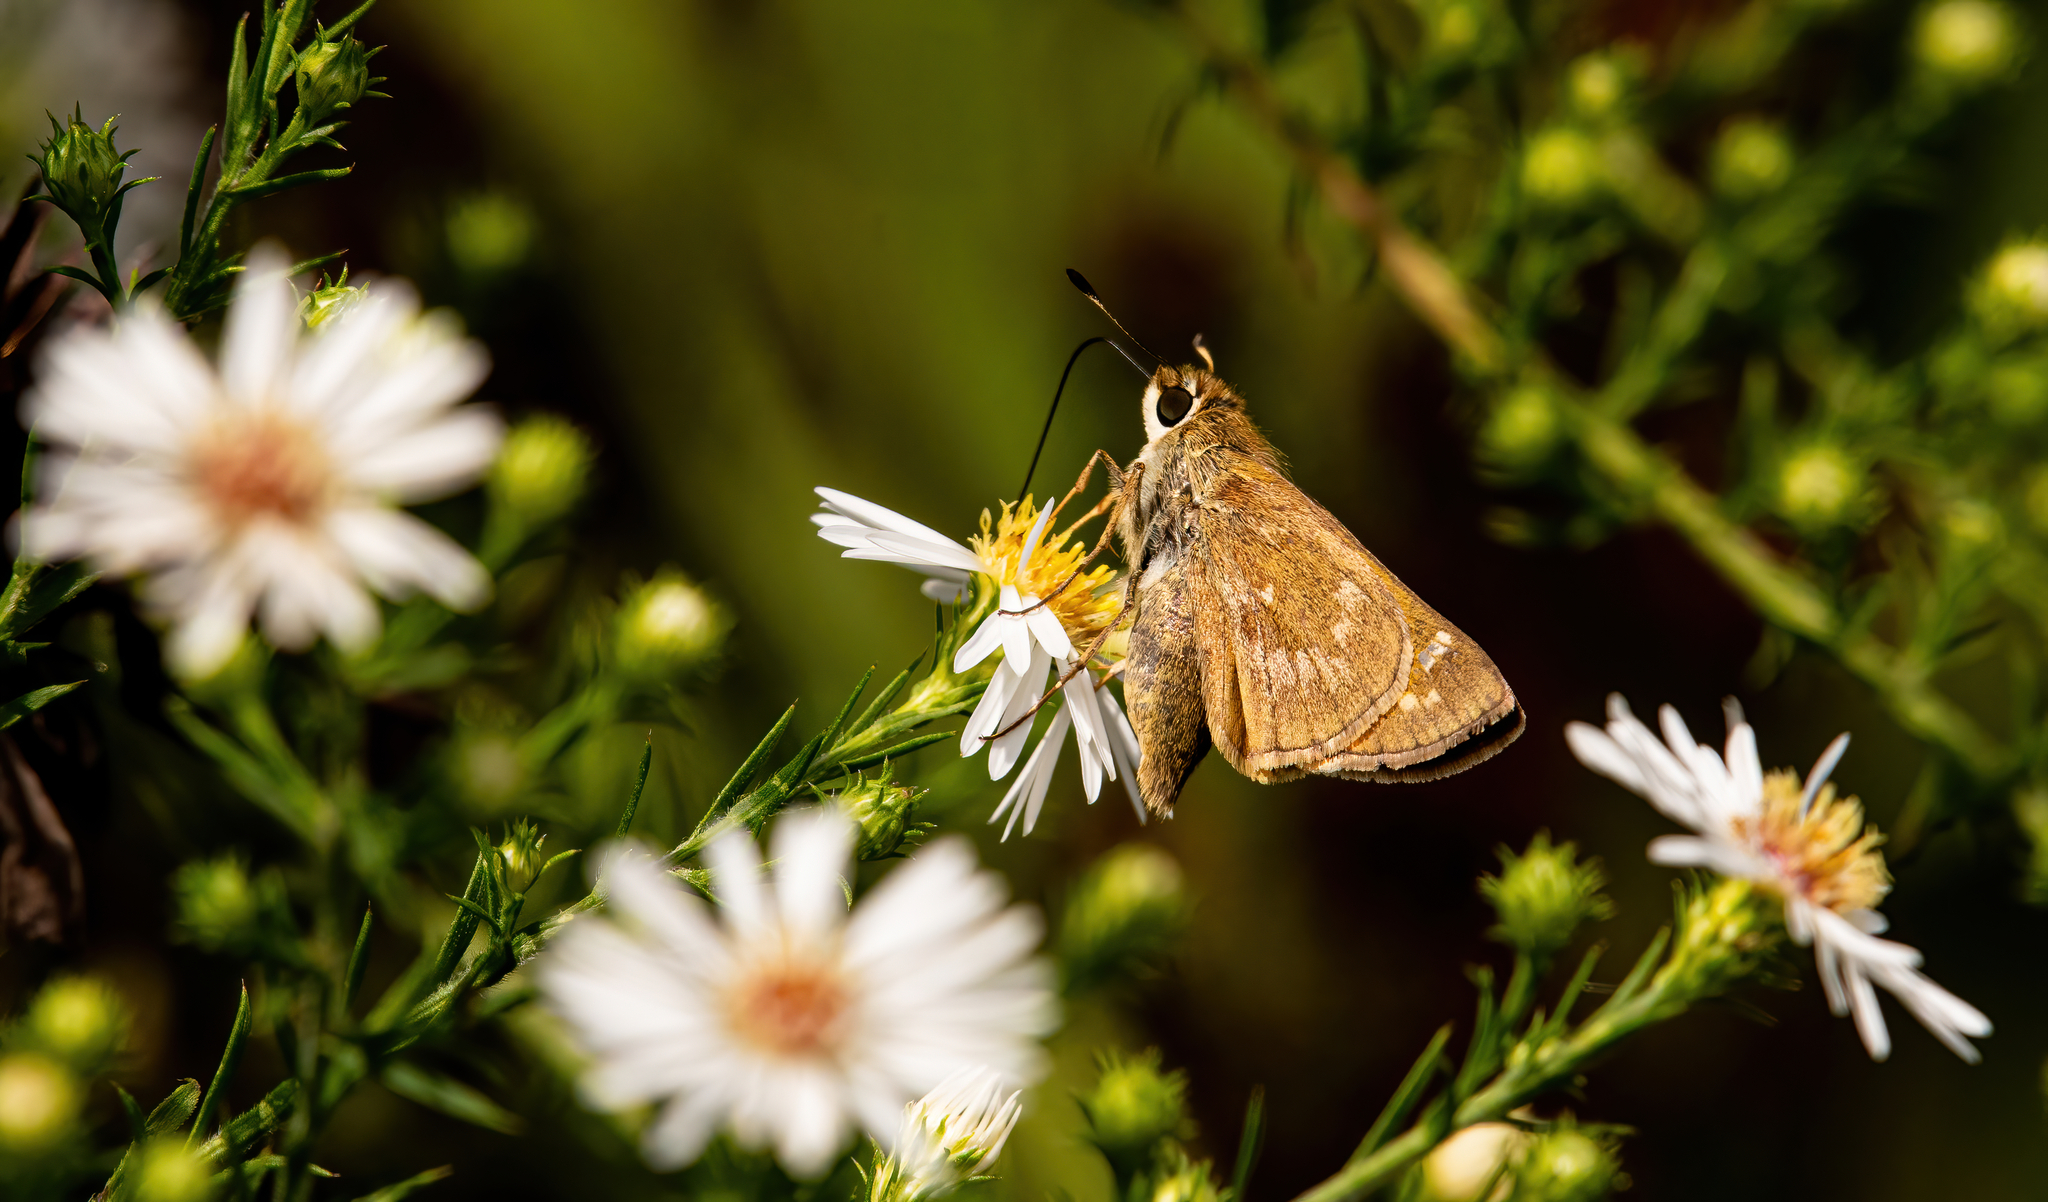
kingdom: Animalia
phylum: Arthropoda
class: Insecta
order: Lepidoptera
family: Hesperiidae
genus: Atalopedes
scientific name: Atalopedes
